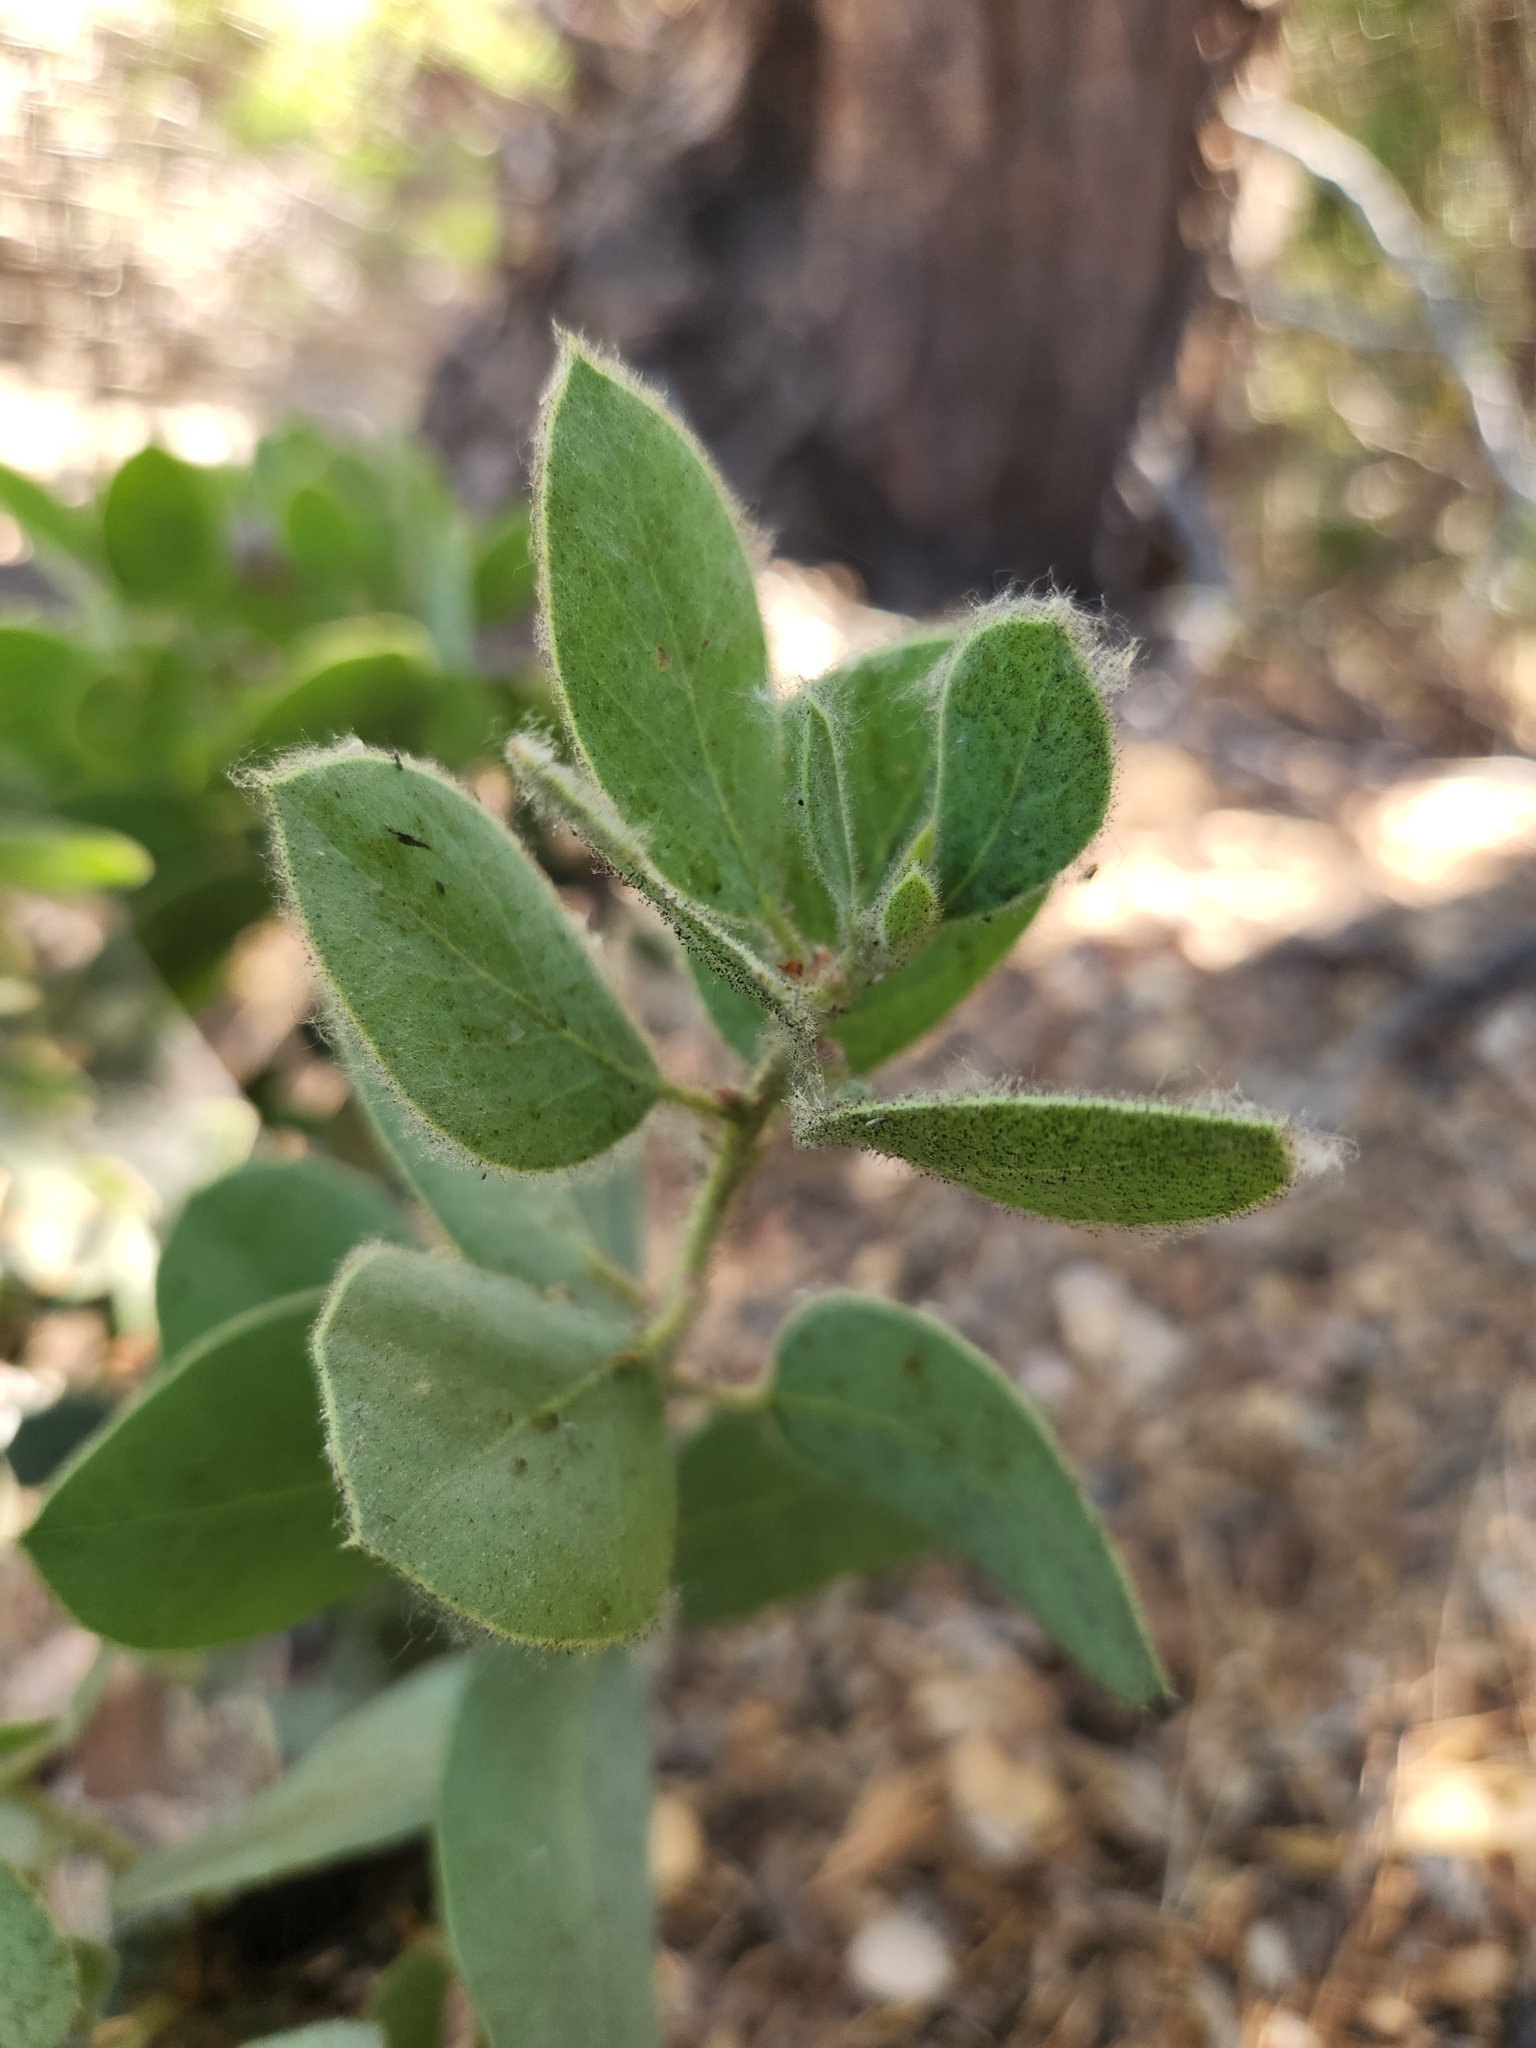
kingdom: Plantae
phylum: Tracheophyta
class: Magnoliopsida
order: Ericales
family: Ericaceae
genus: Arctostaphylos
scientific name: Arctostaphylos pringlei
